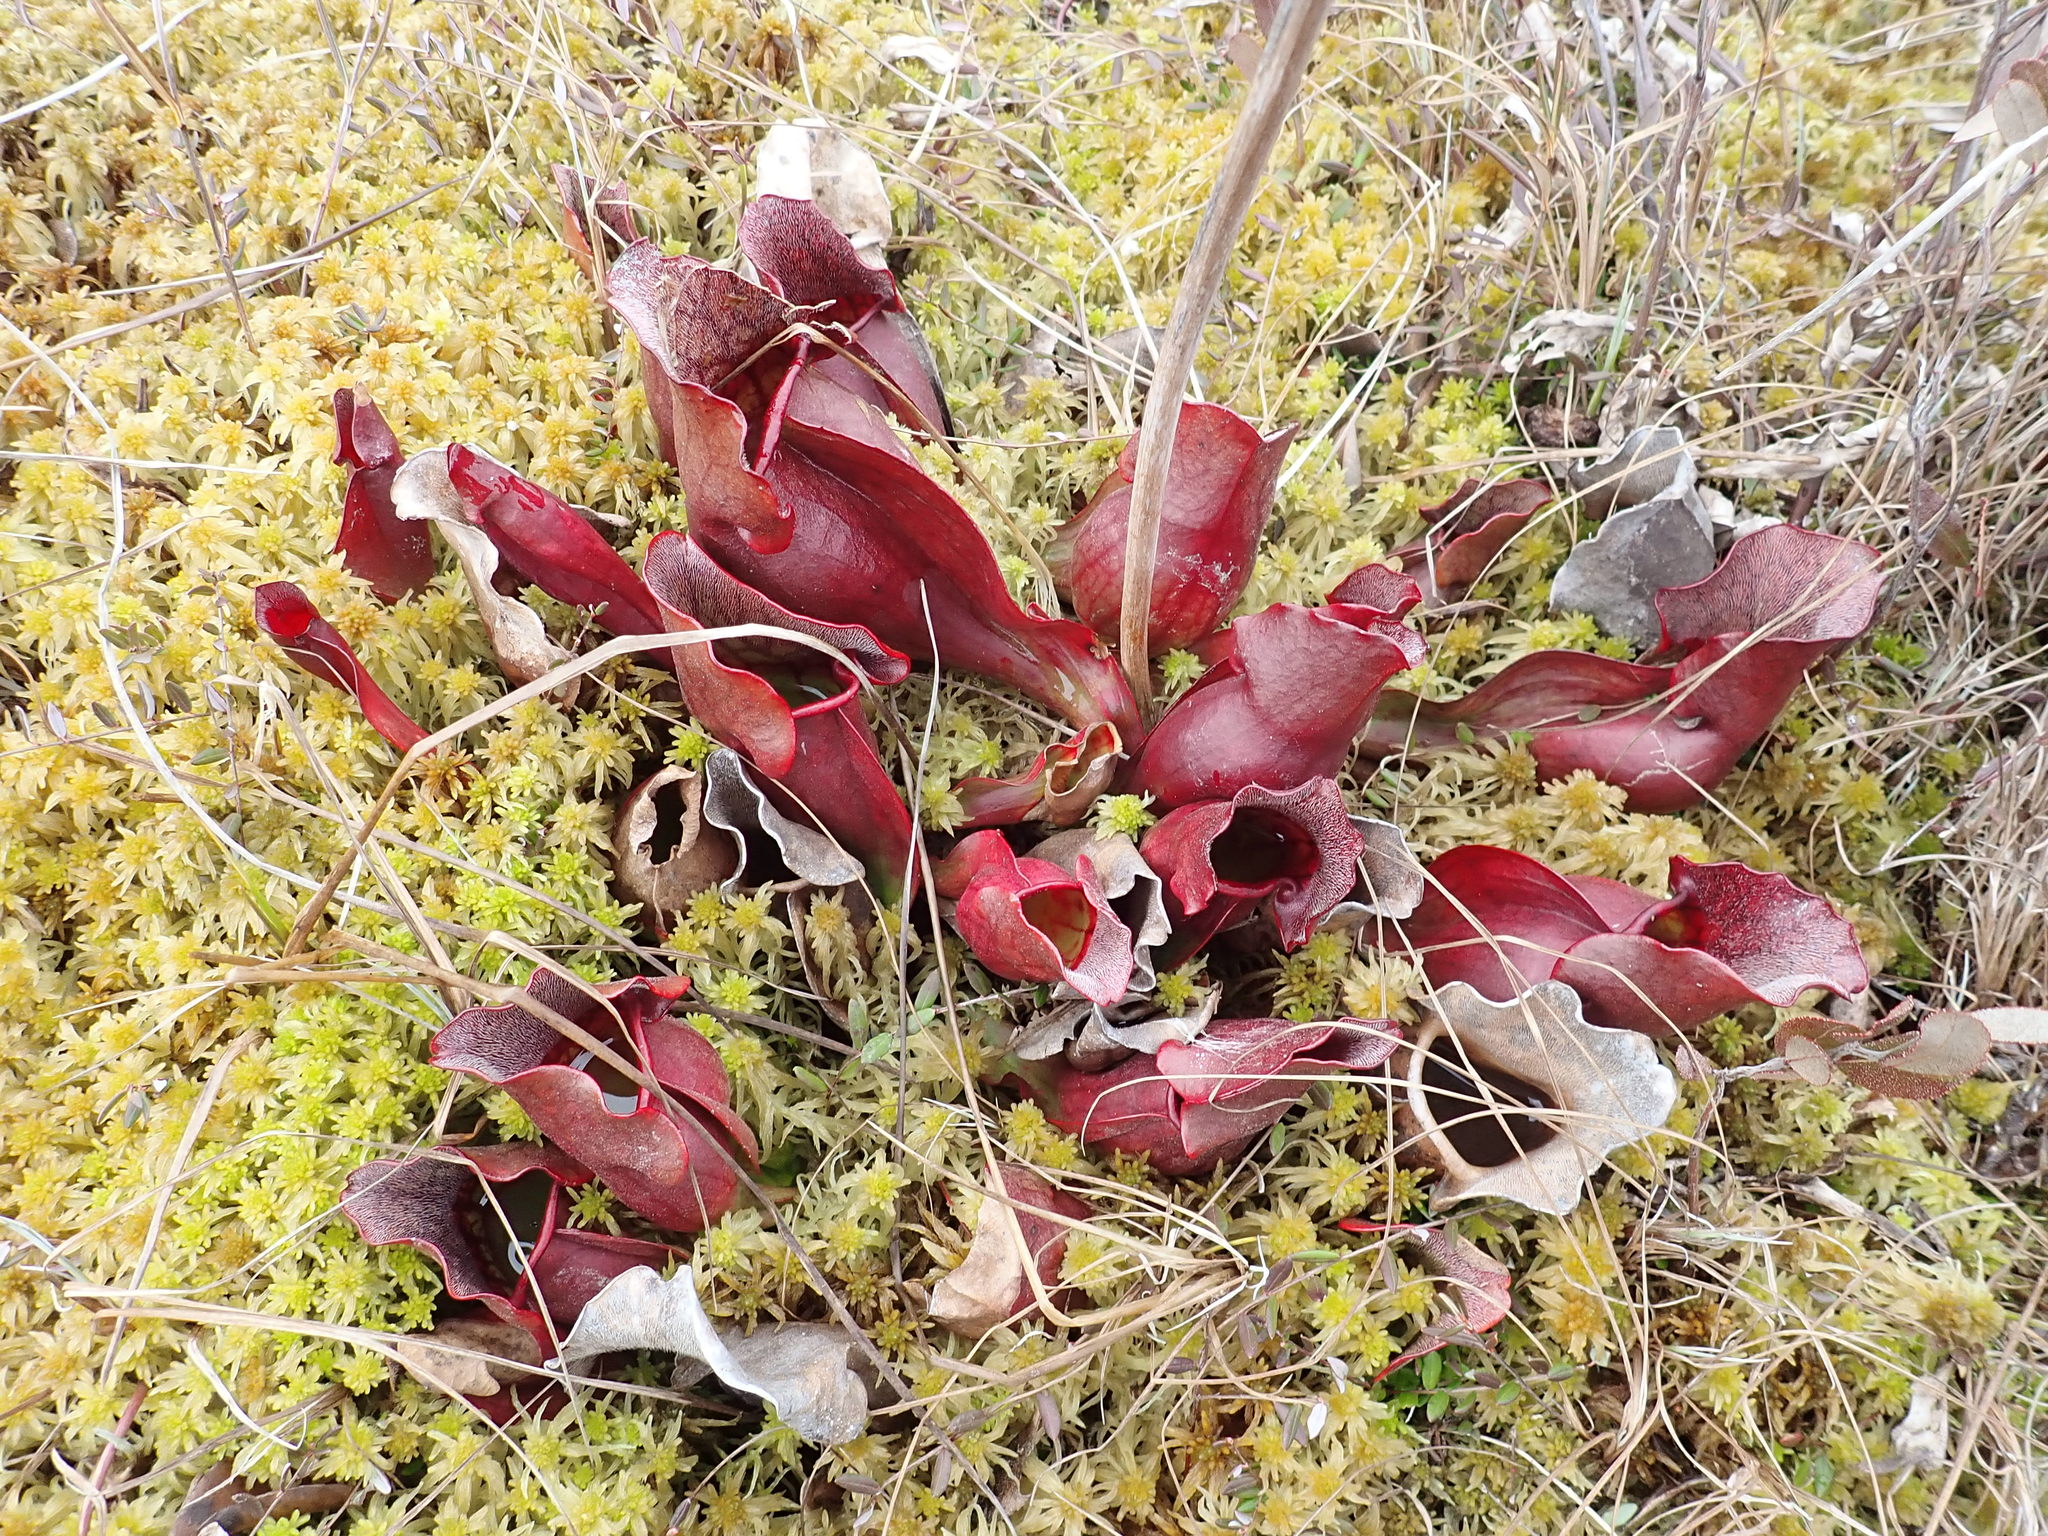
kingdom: Plantae
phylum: Tracheophyta
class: Magnoliopsida
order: Ericales
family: Sarraceniaceae
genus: Sarracenia
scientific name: Sarracenia purpurea
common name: Pitcherplant
